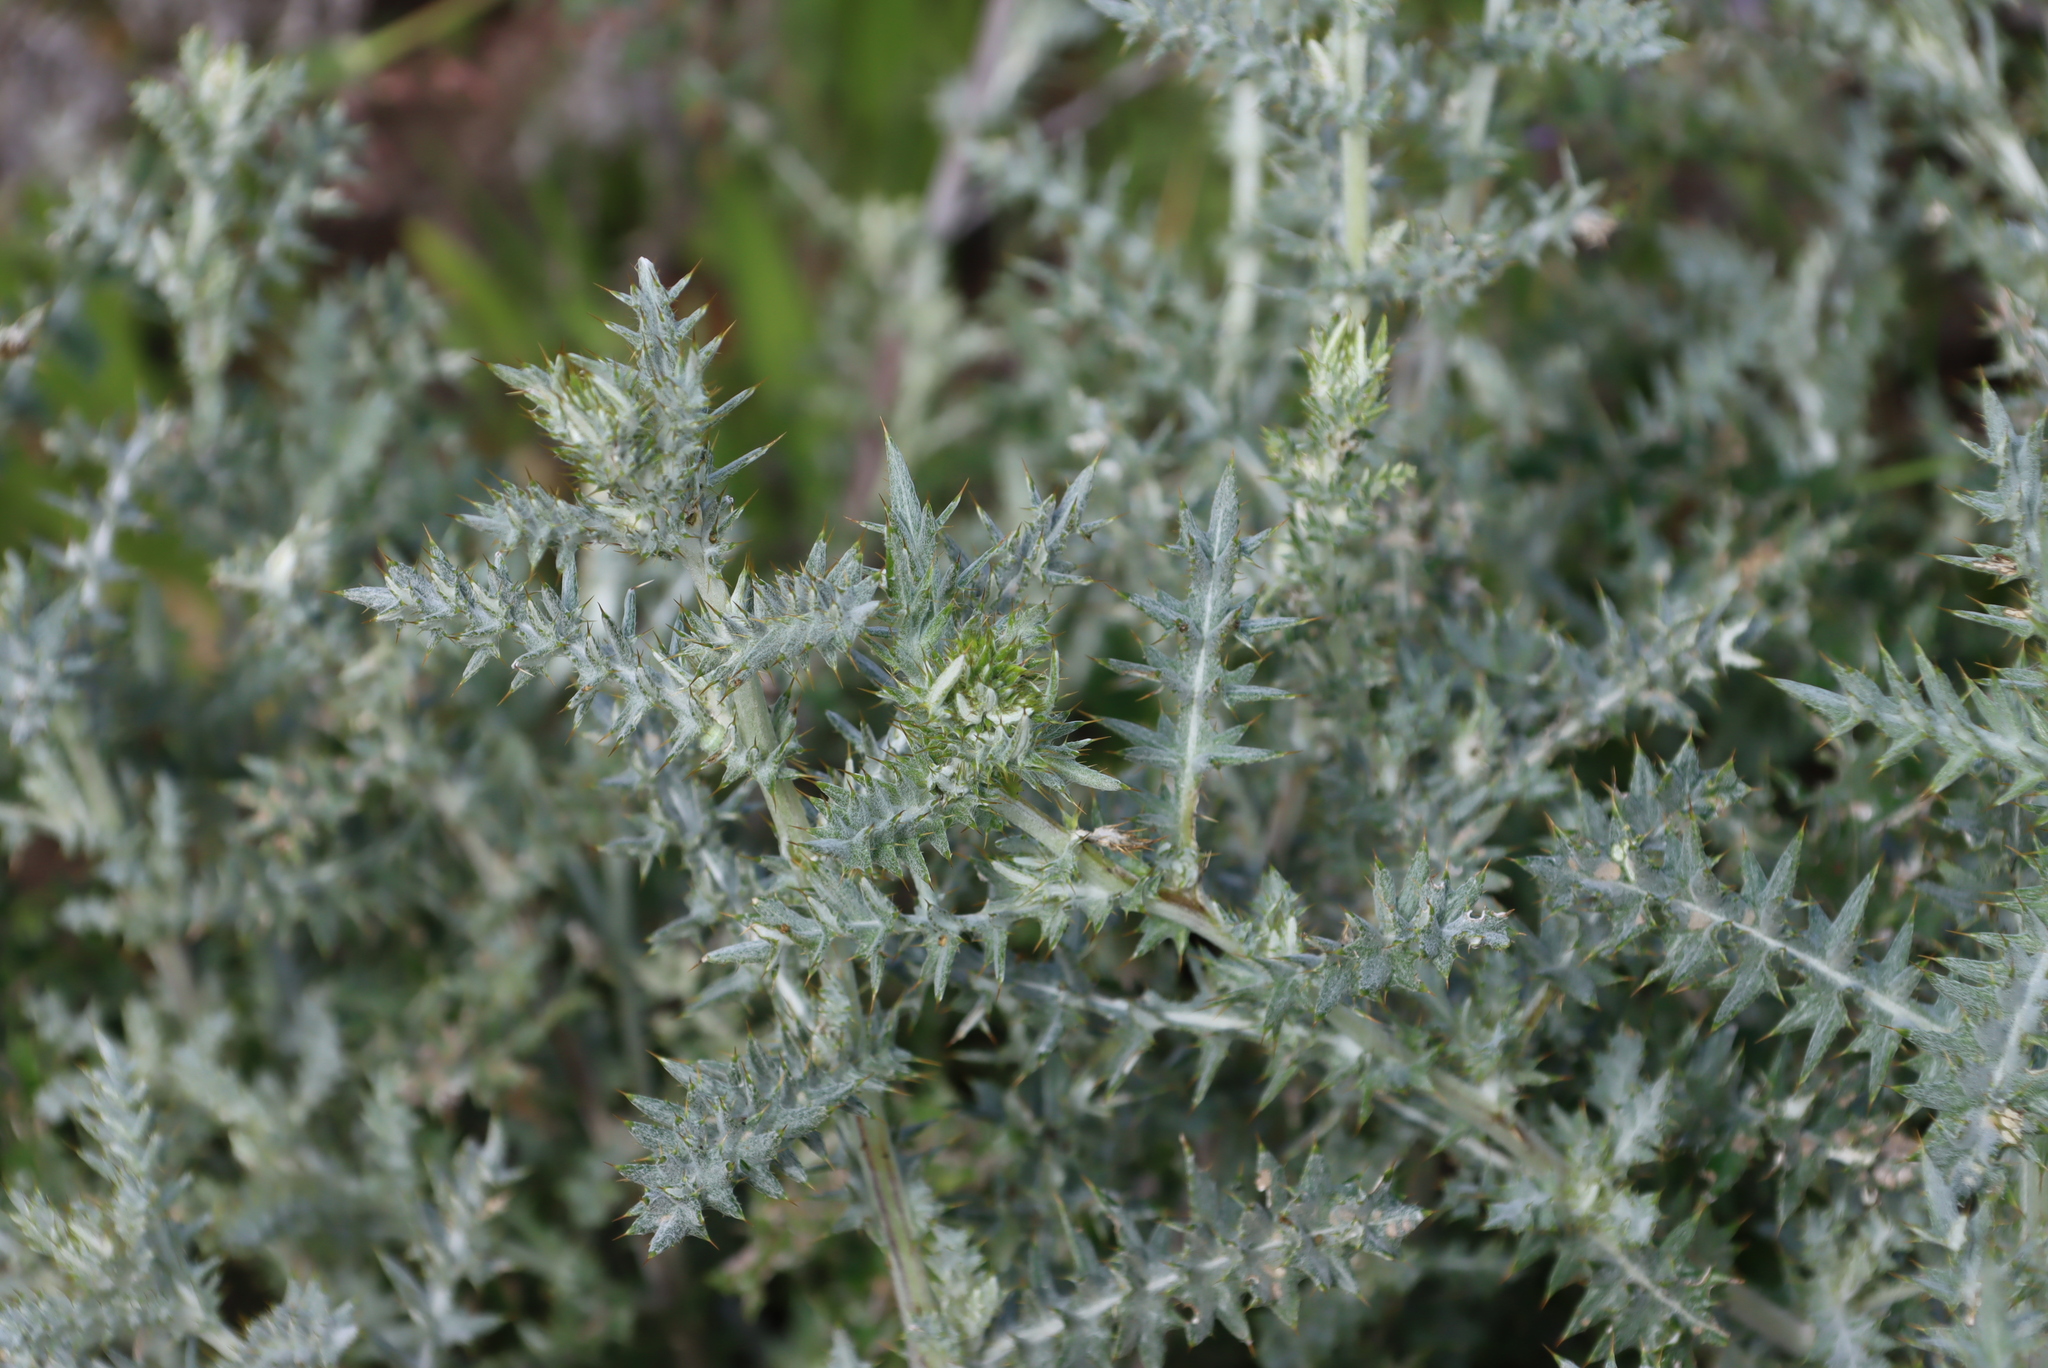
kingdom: Plantae
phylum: Tracheophyta
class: Magnoliopsida
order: Asterales
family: Asteraceae
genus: Berkheya
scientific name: Berkheya rigida
